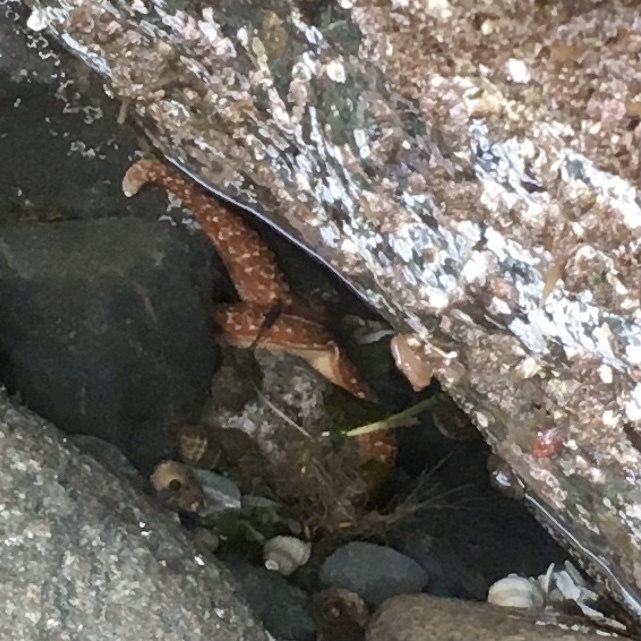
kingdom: Animalia
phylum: Echinodermata
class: Asteroidea
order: Forcipulatida
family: Asteriidae
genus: Evasterias
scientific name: Evasterias troschelii
